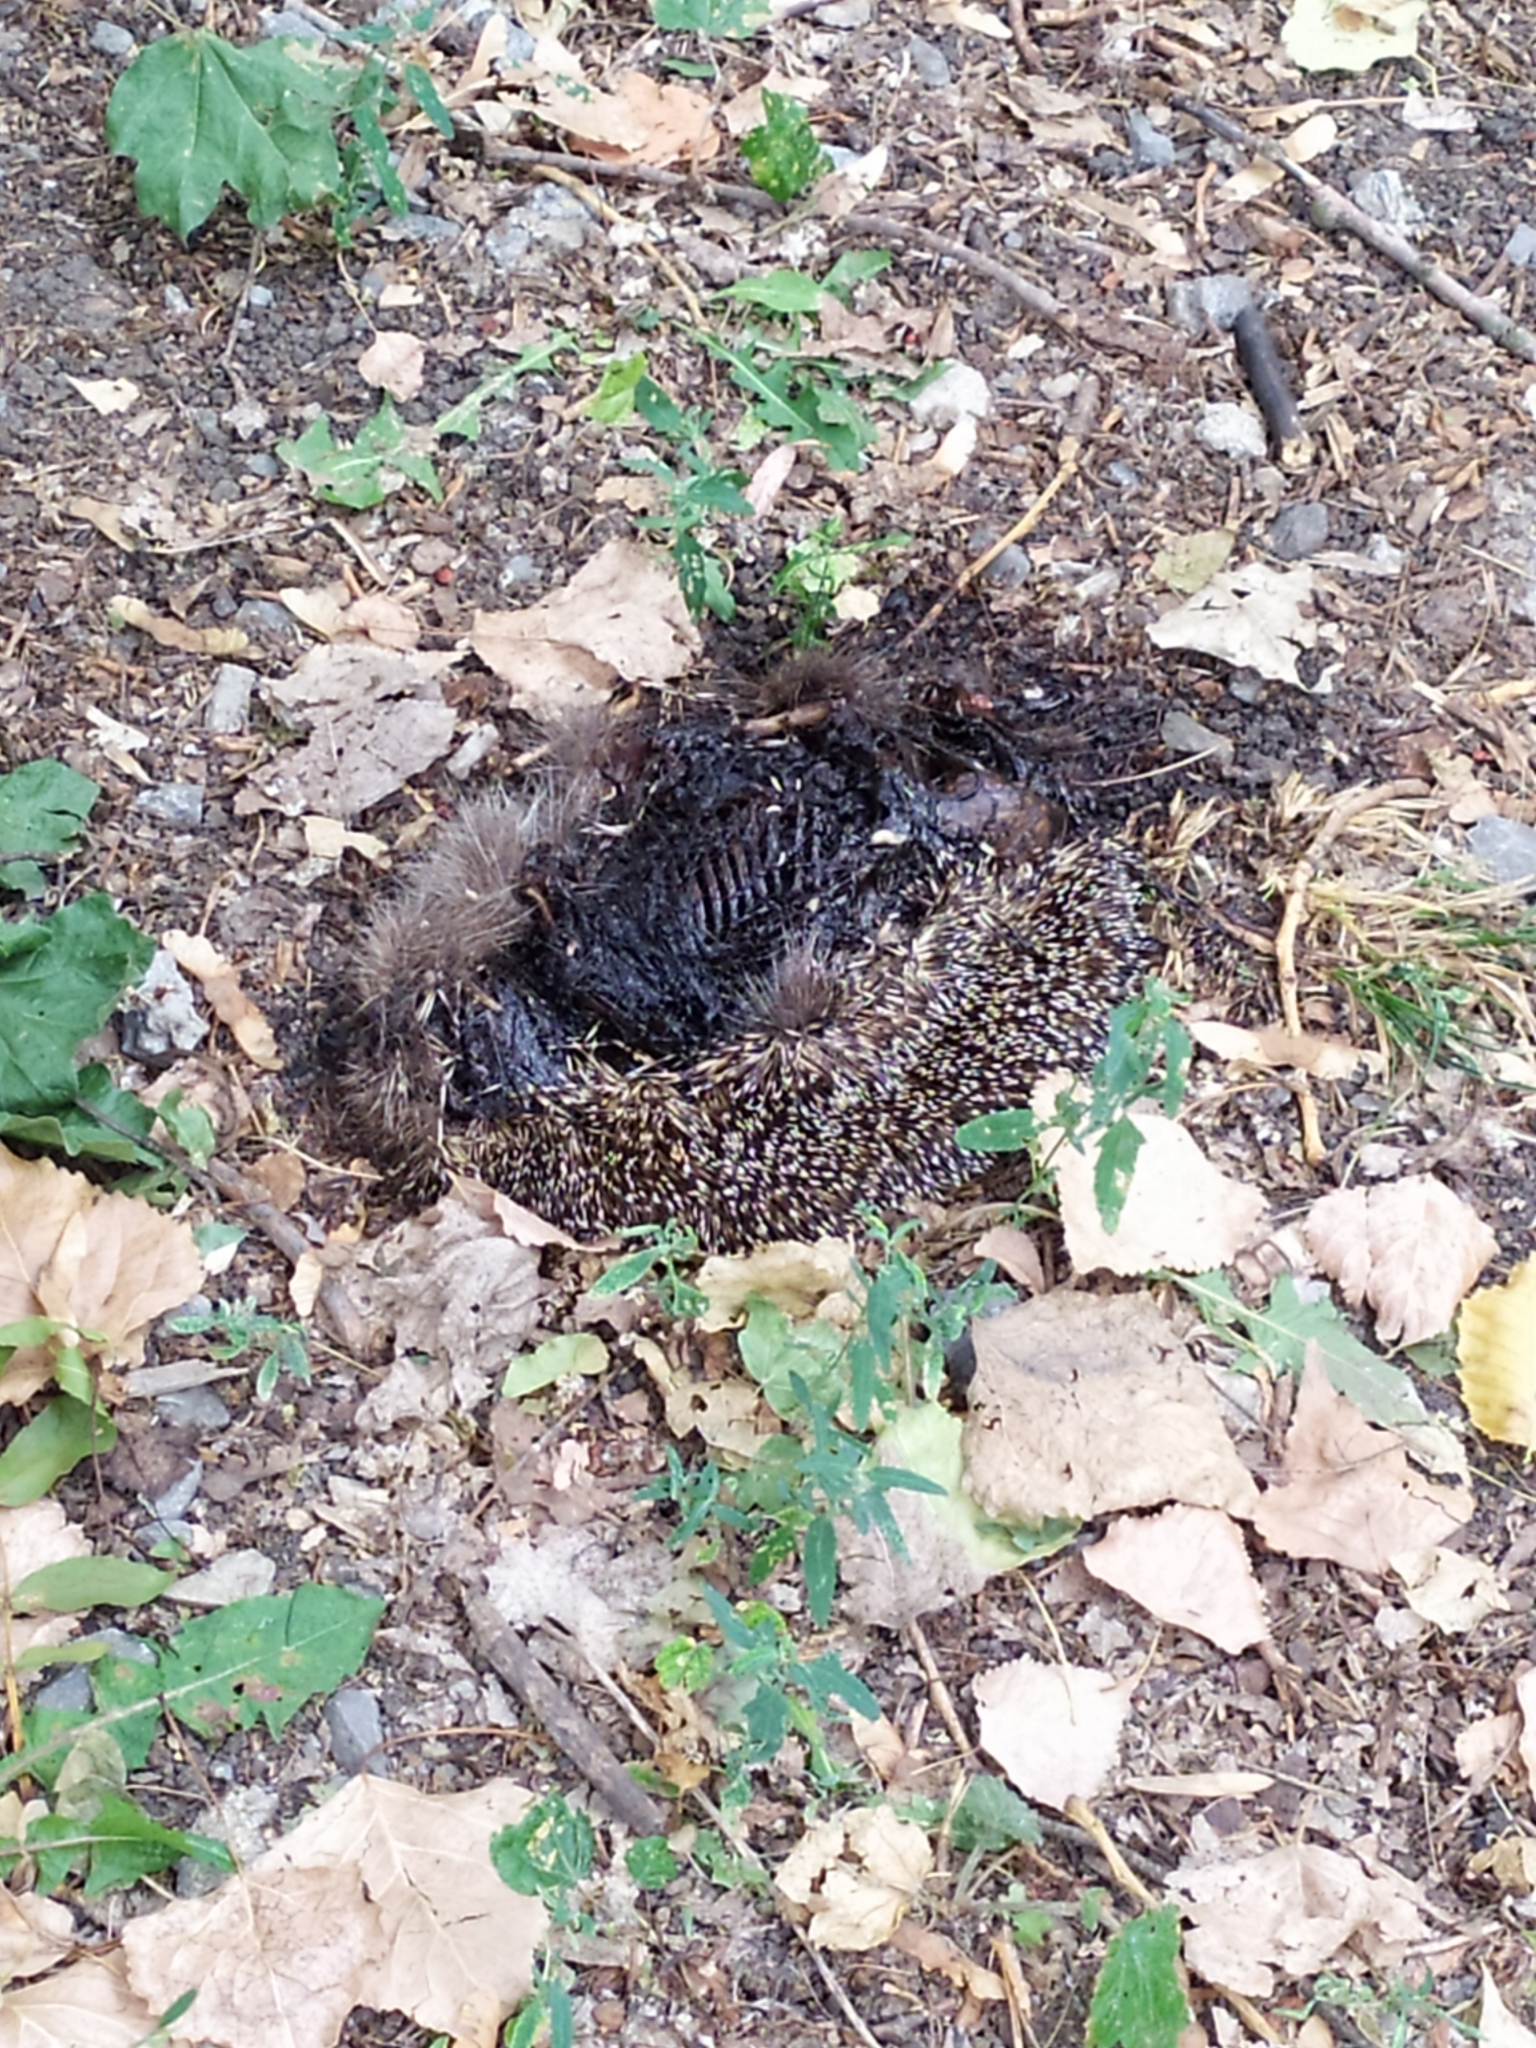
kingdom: Animalia
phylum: Chordata
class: Mammalia
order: Erinaceomorpha
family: Erinaceidae
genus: Erinaceus
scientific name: Erinaceus roumanicus
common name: Northern white-breasted hedgehog
